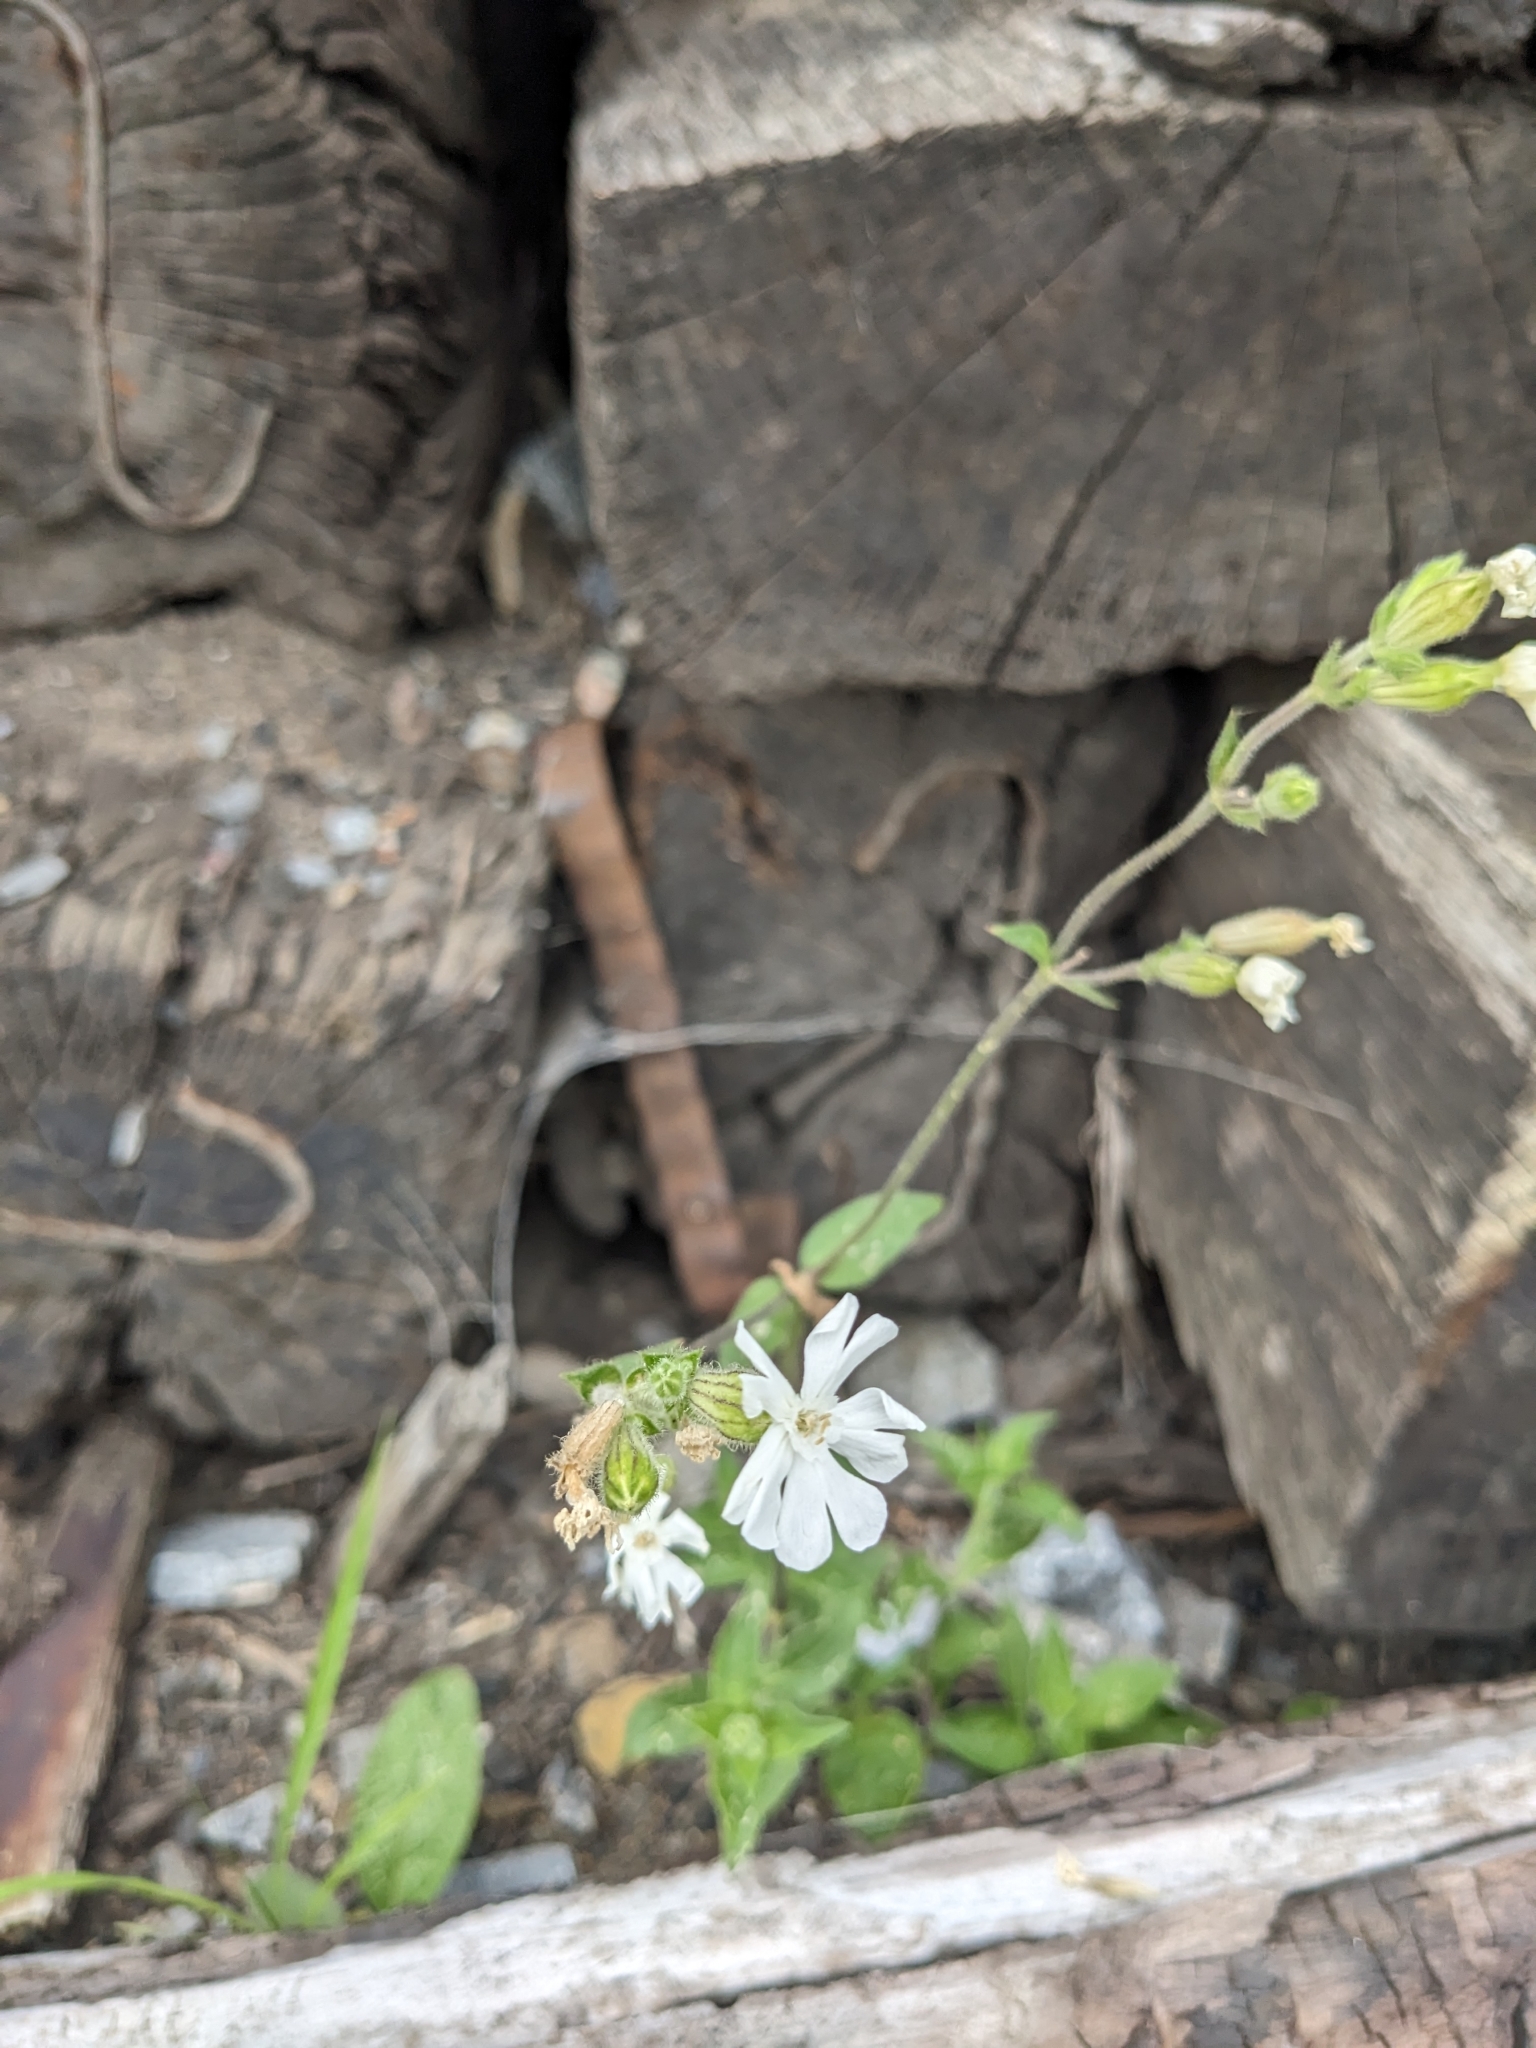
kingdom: Plantae
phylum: Tracheophyta
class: Magnoliopsida
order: Caryophyllales
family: Caryophyllaceae
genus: Silene
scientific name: Silene latifolia
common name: White campion
